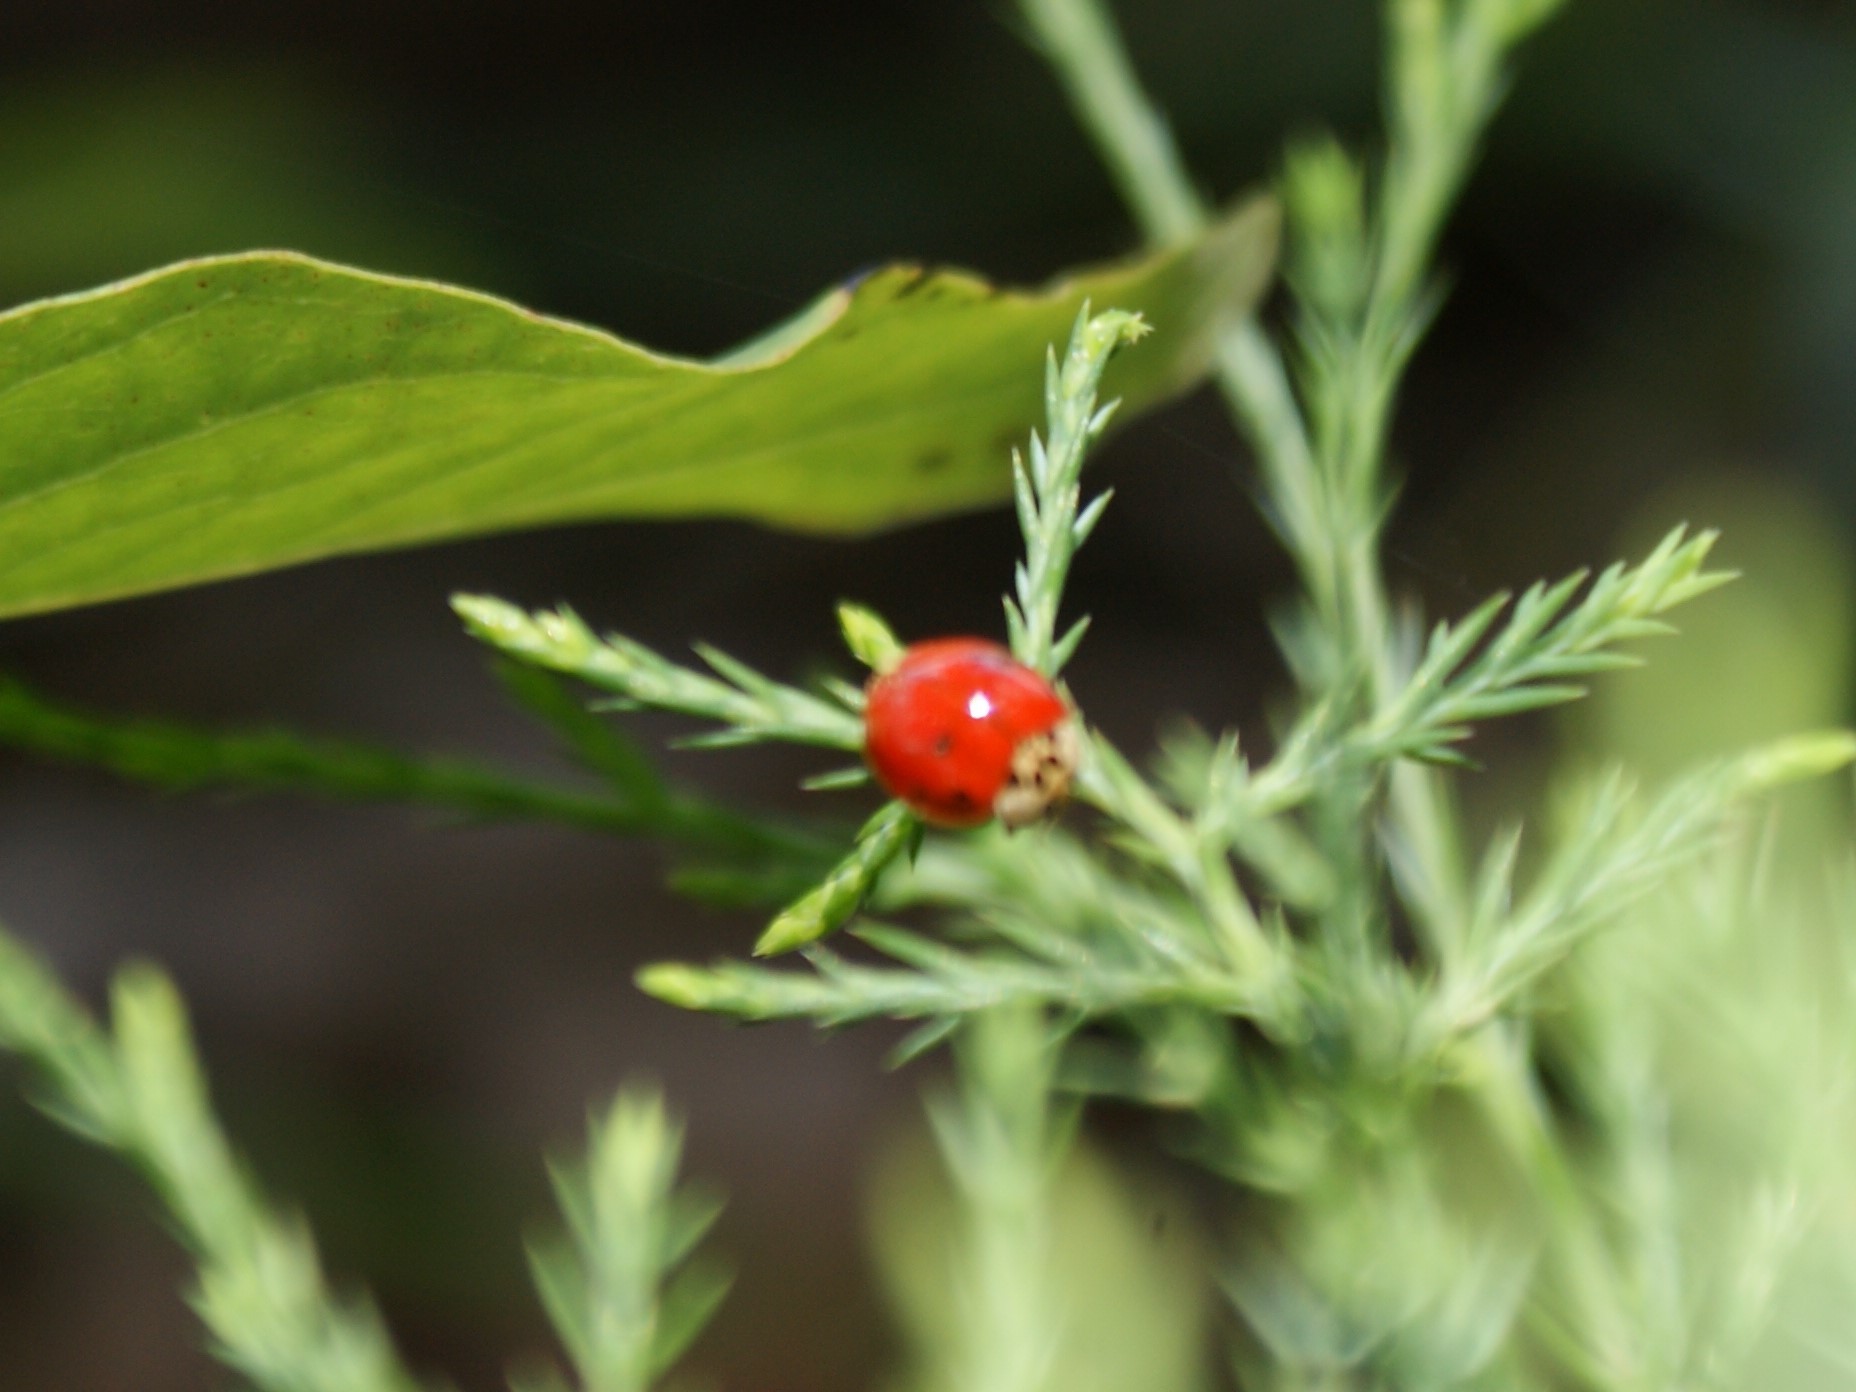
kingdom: Animalia
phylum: Arthropoda
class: Insecta
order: Coleoptera
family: Coccinellidae
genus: Harmonia
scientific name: Harmonia axyridis
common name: Harlequin ladybird
